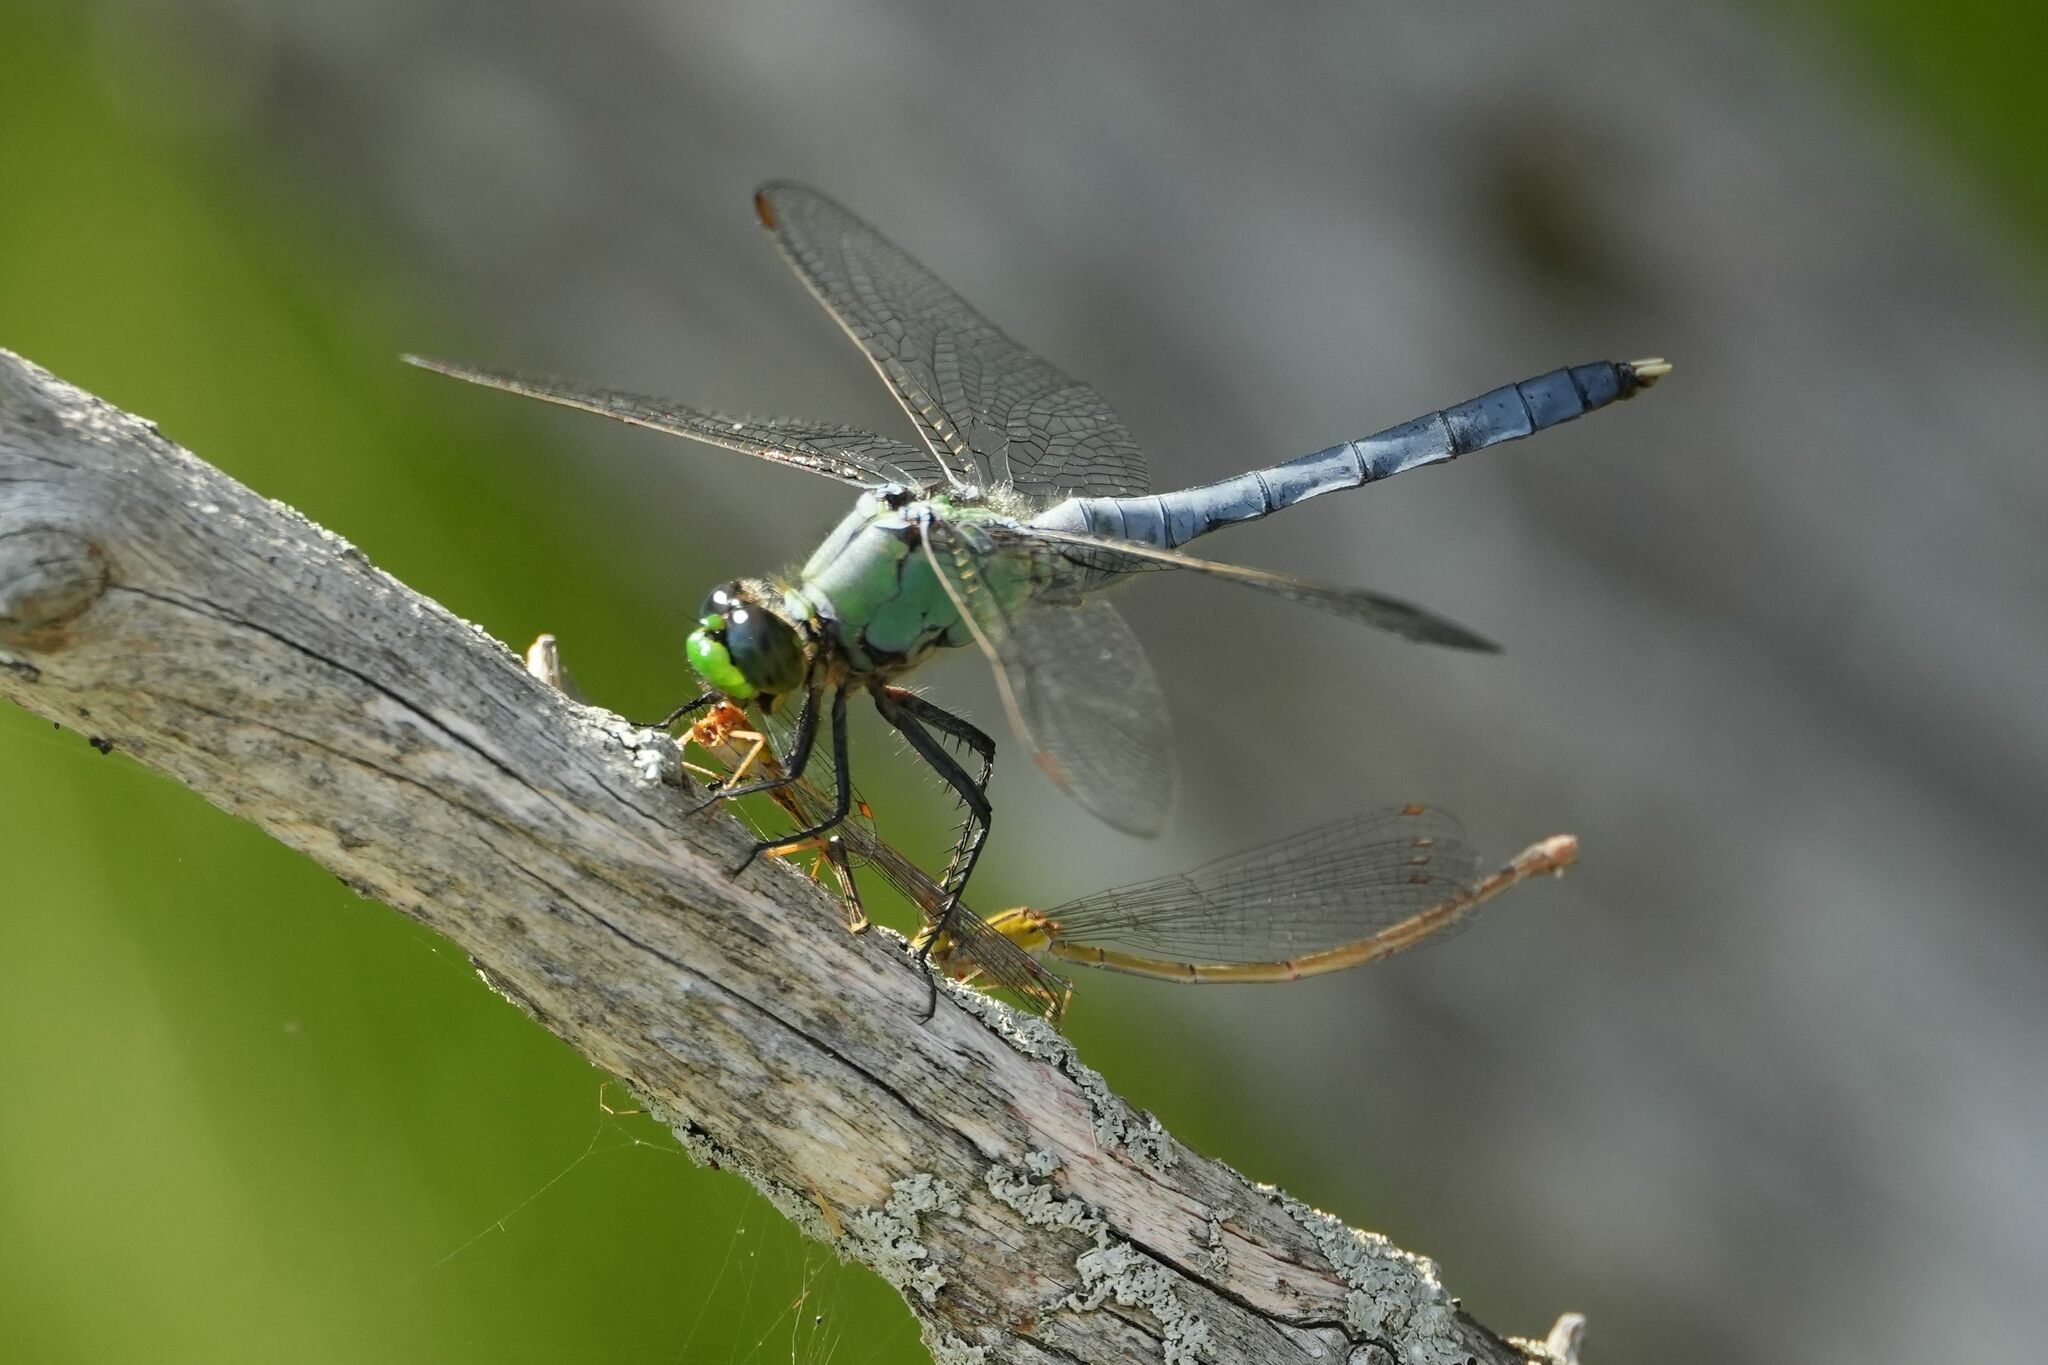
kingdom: Animalia
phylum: Arthropoda
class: Insecta
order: Odonata
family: Coenagrionidae
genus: Enallagma
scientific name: Enallagma signatum
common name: Orange bluet
